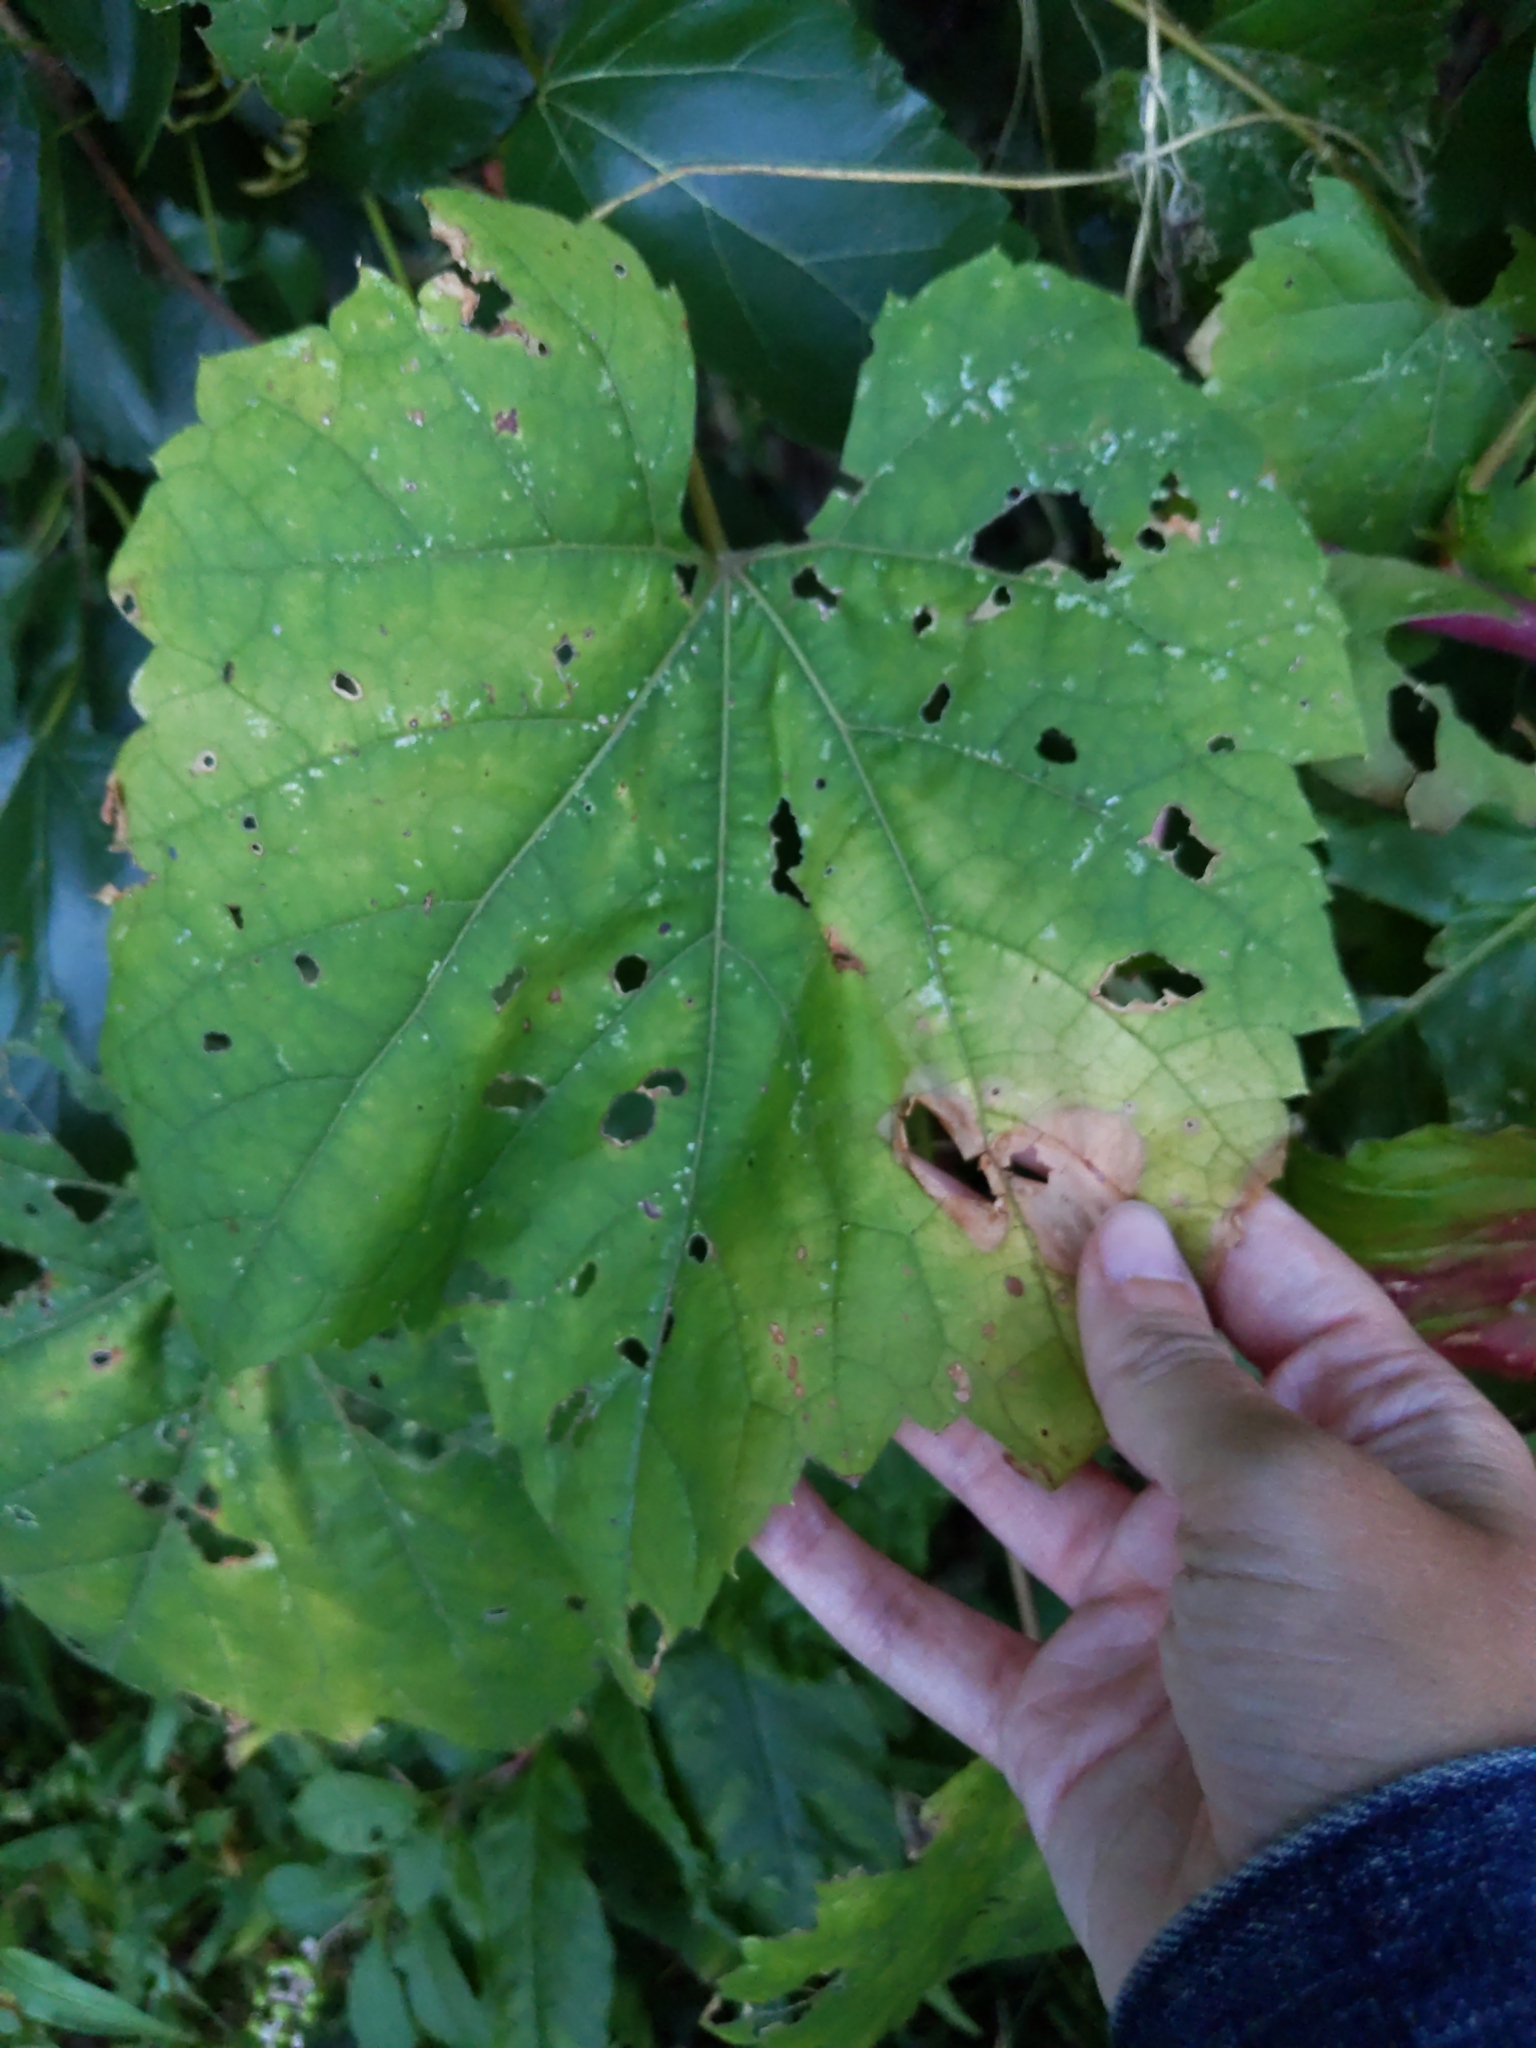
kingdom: Plantae
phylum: Tracheophyta
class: Magnoliopsida
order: Vitales
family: Vitaceae
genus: Vitis
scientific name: Vitis
